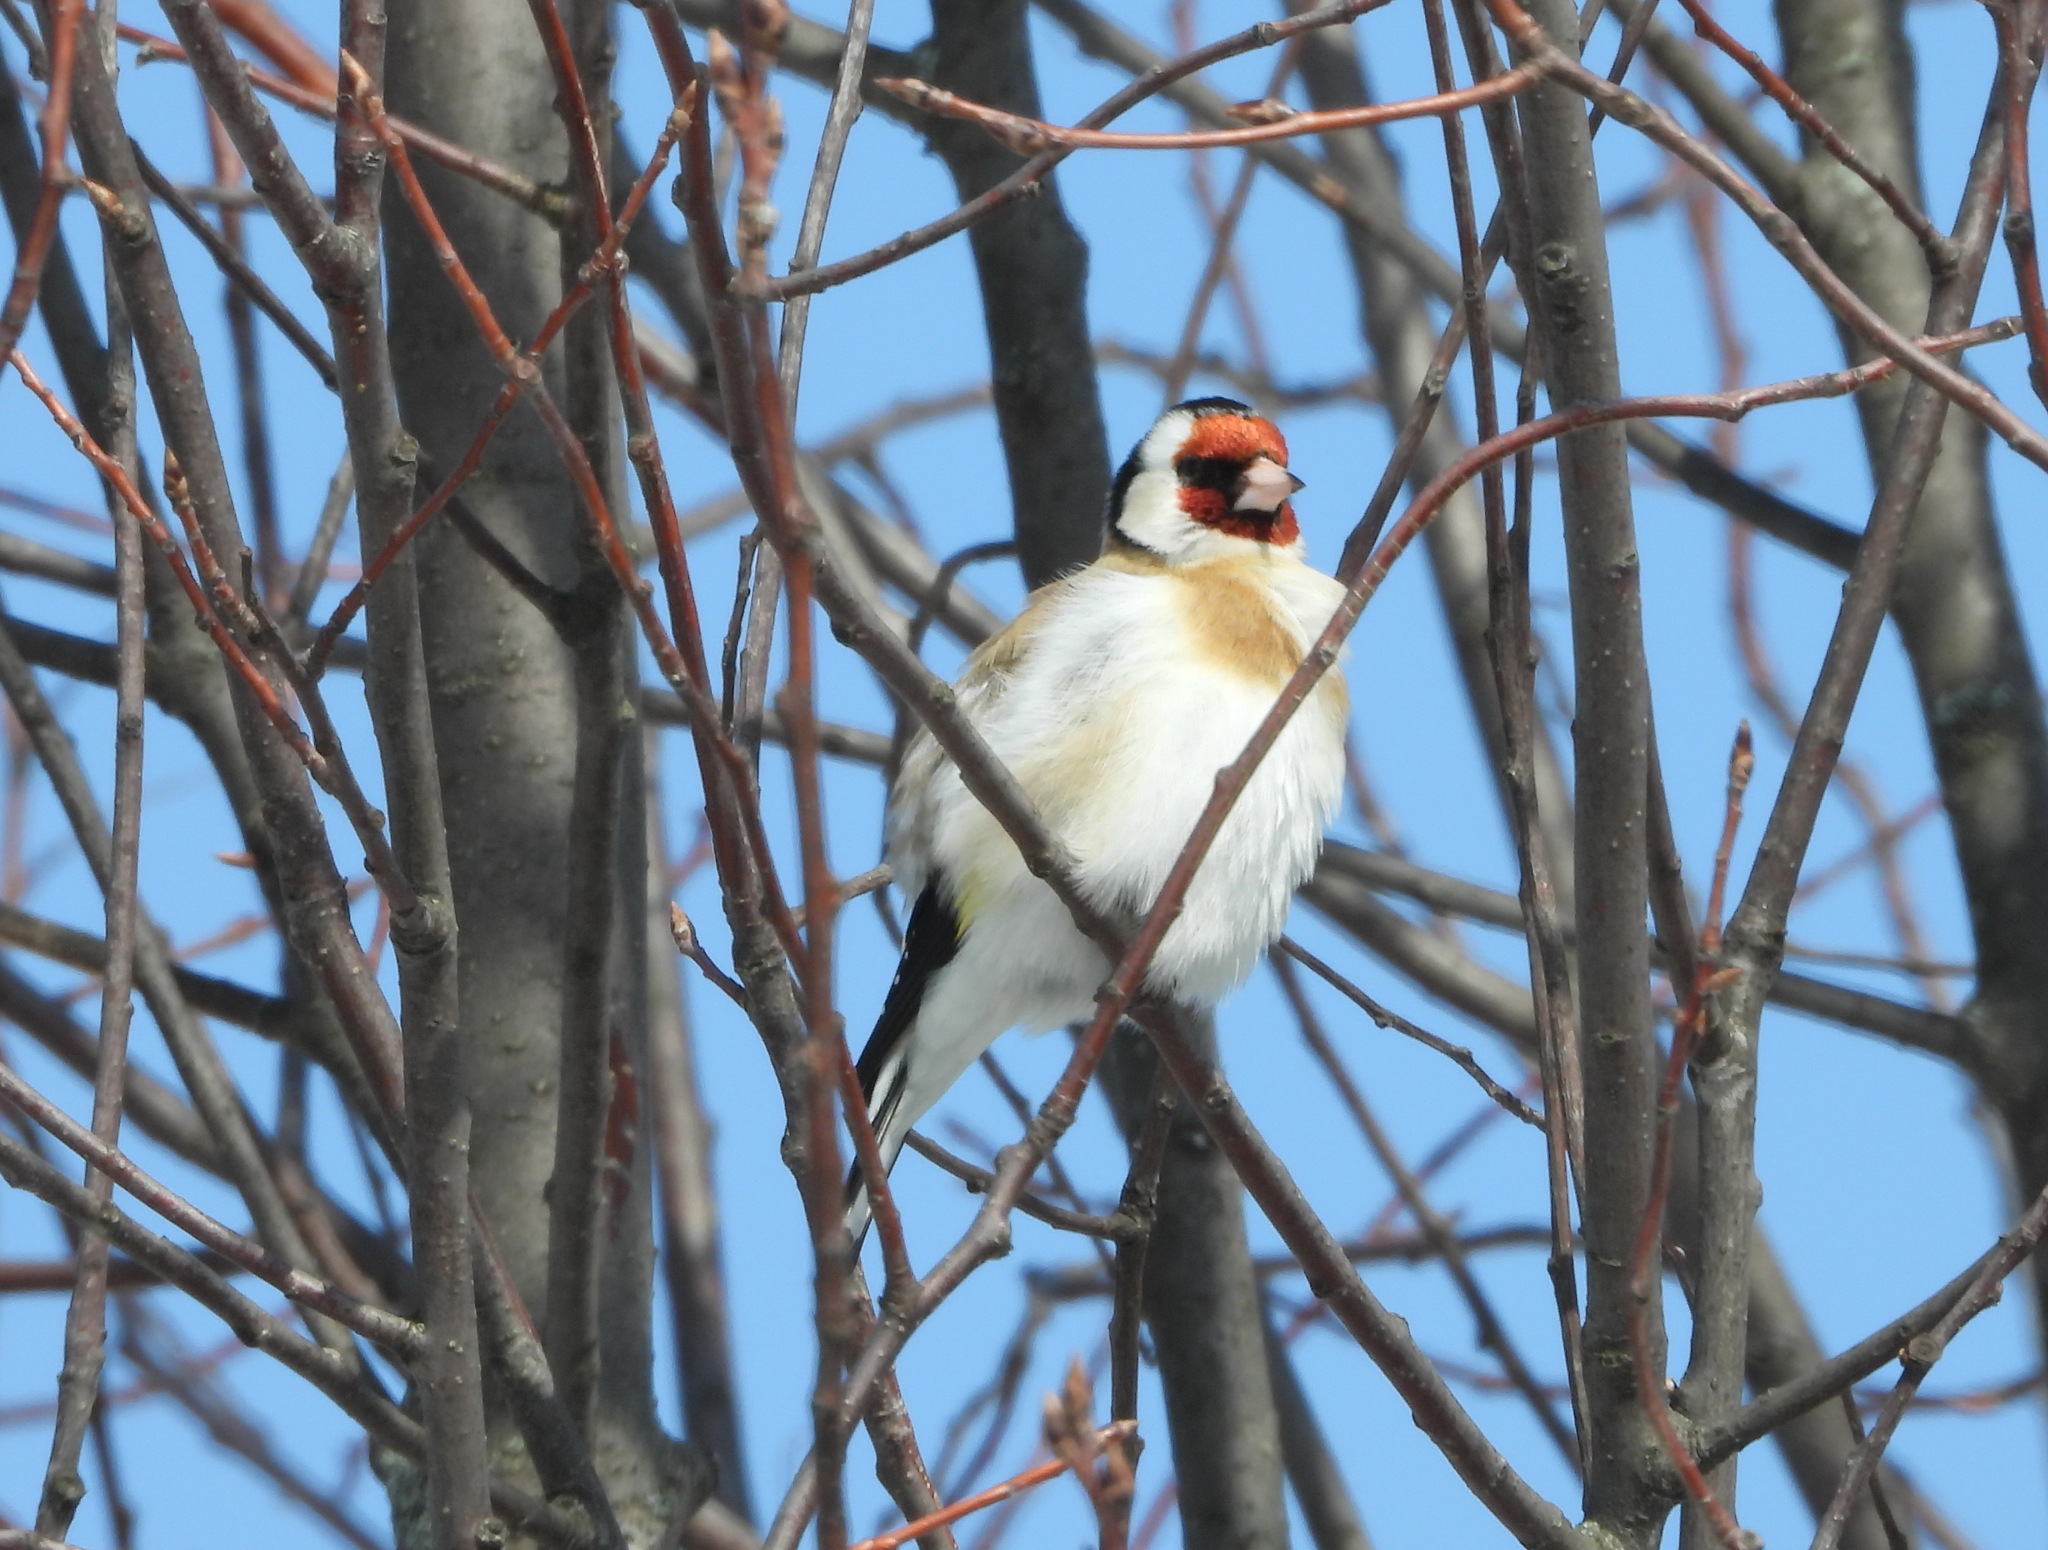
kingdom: Animalia
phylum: Chordata
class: Aves
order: Passeriformes
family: Fringillidae
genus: Carduelis
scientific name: Carduelis carduelis
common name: European goldfinch
